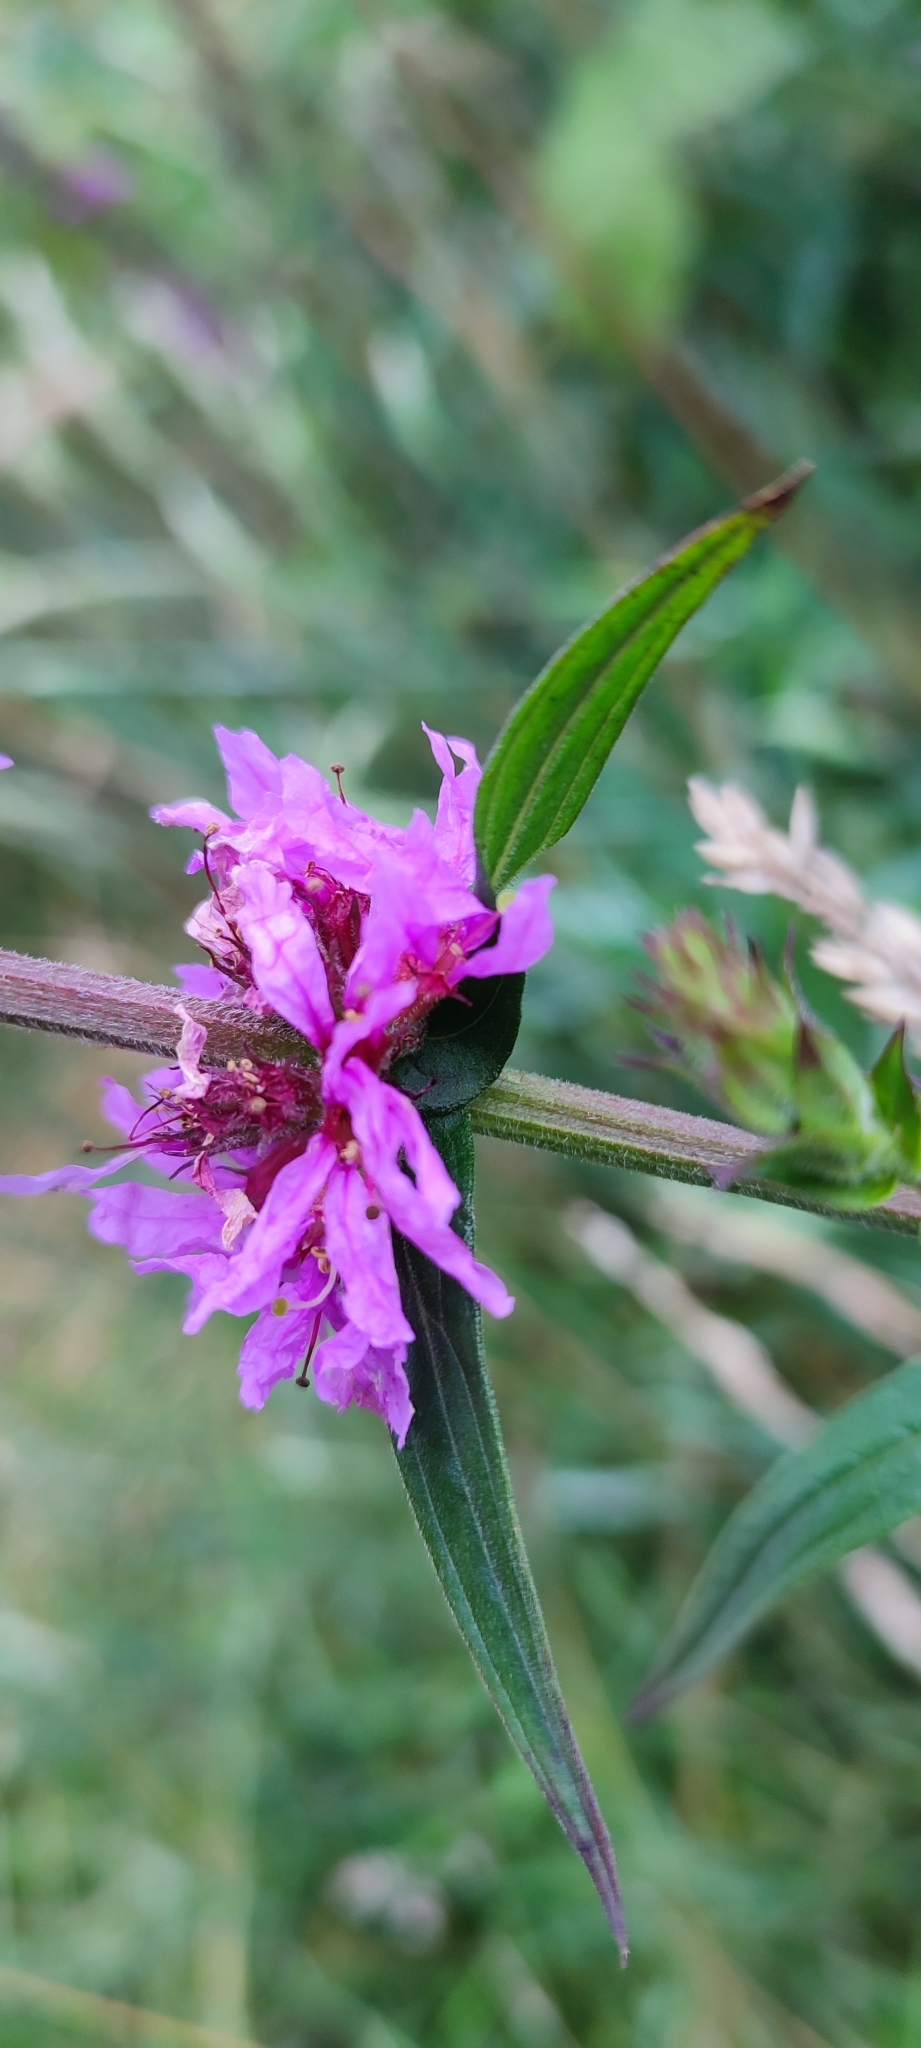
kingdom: Plantae
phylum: Tracheophyta
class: Magnoliopsida
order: Myrtales
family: Lythraceae
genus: Lythrum
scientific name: Lythrum salicaria
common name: Purple loosestrife
